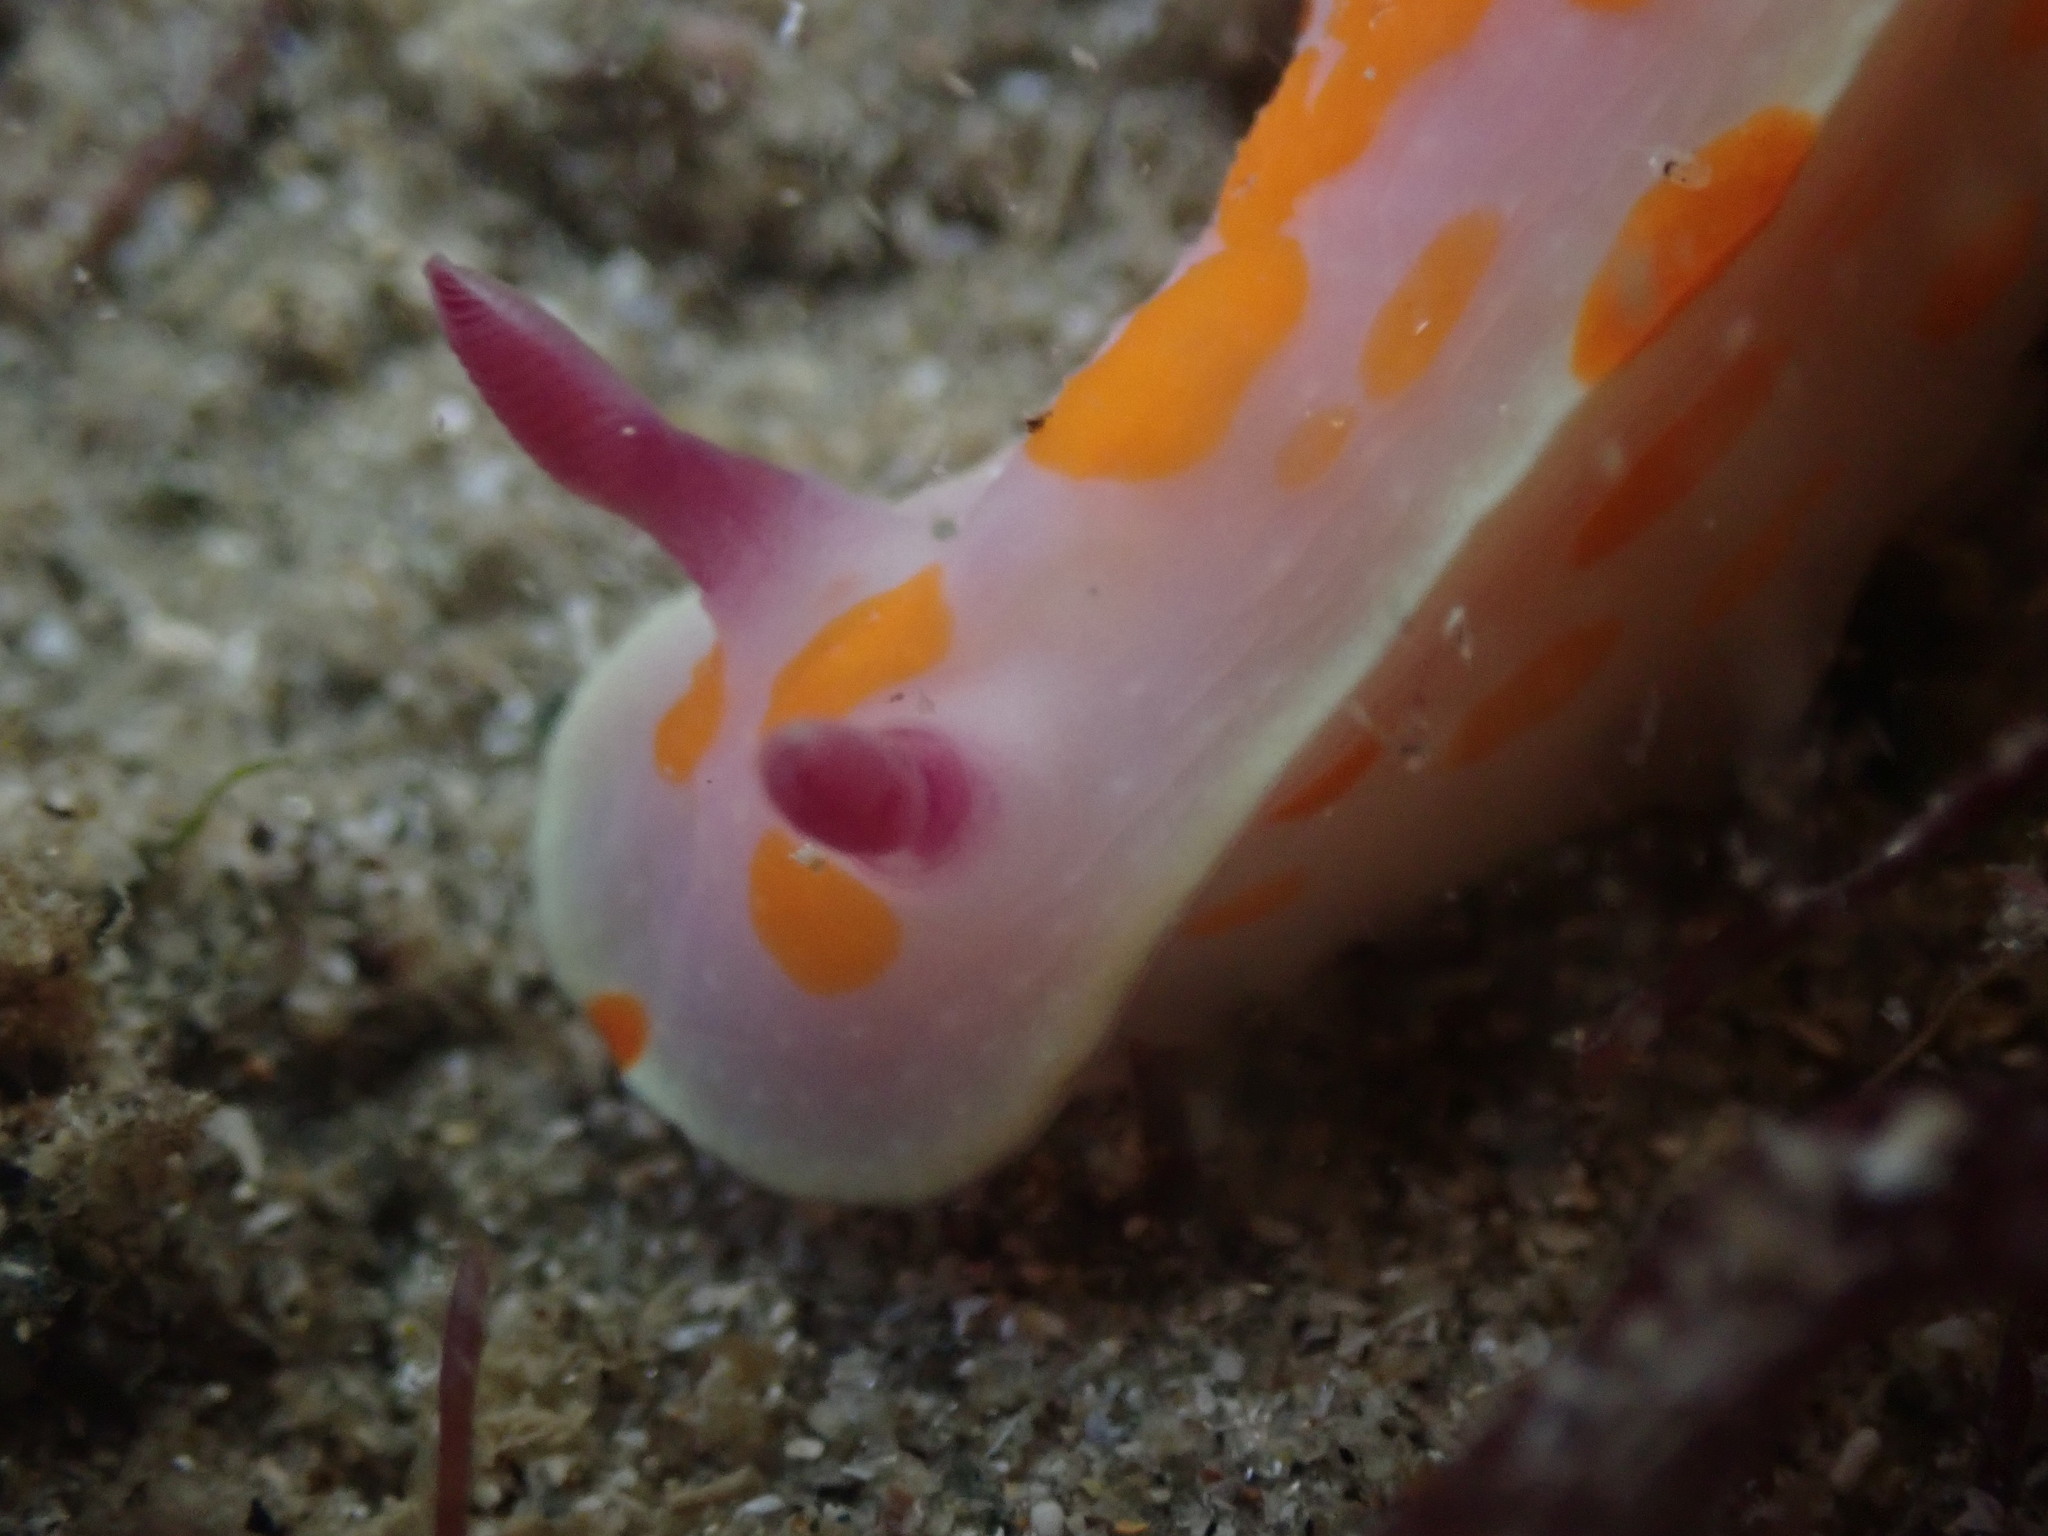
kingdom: Animalia
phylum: Mollusca
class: Gastropoda
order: Nudibranchia
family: Chromodorididae
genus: Ceratosoma
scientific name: Ceratosoma amoenum
